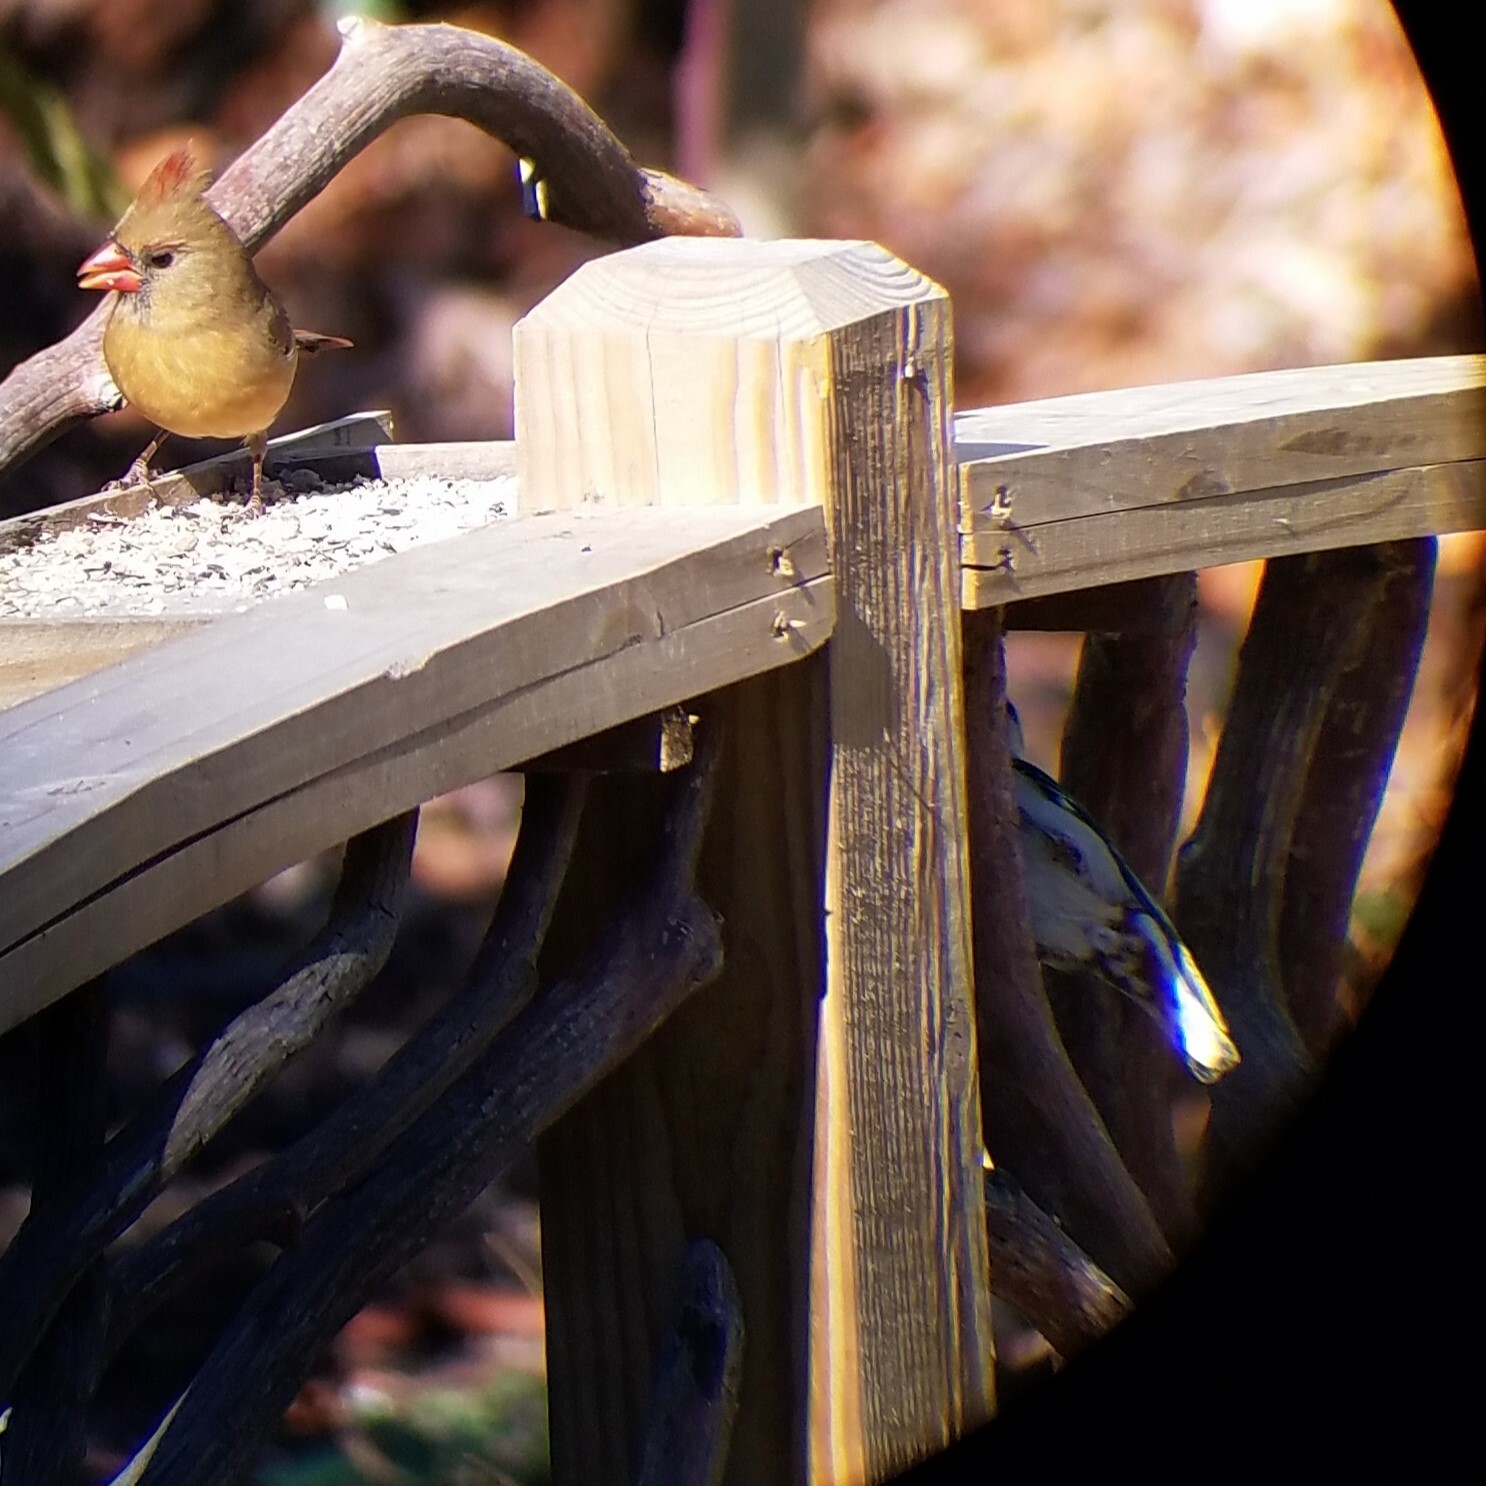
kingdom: Animalia
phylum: Chordata
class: Aves
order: Passeriformes
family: Sittidae
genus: Sitta
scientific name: Sitta carolinensis
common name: White-breasted nuthatch
